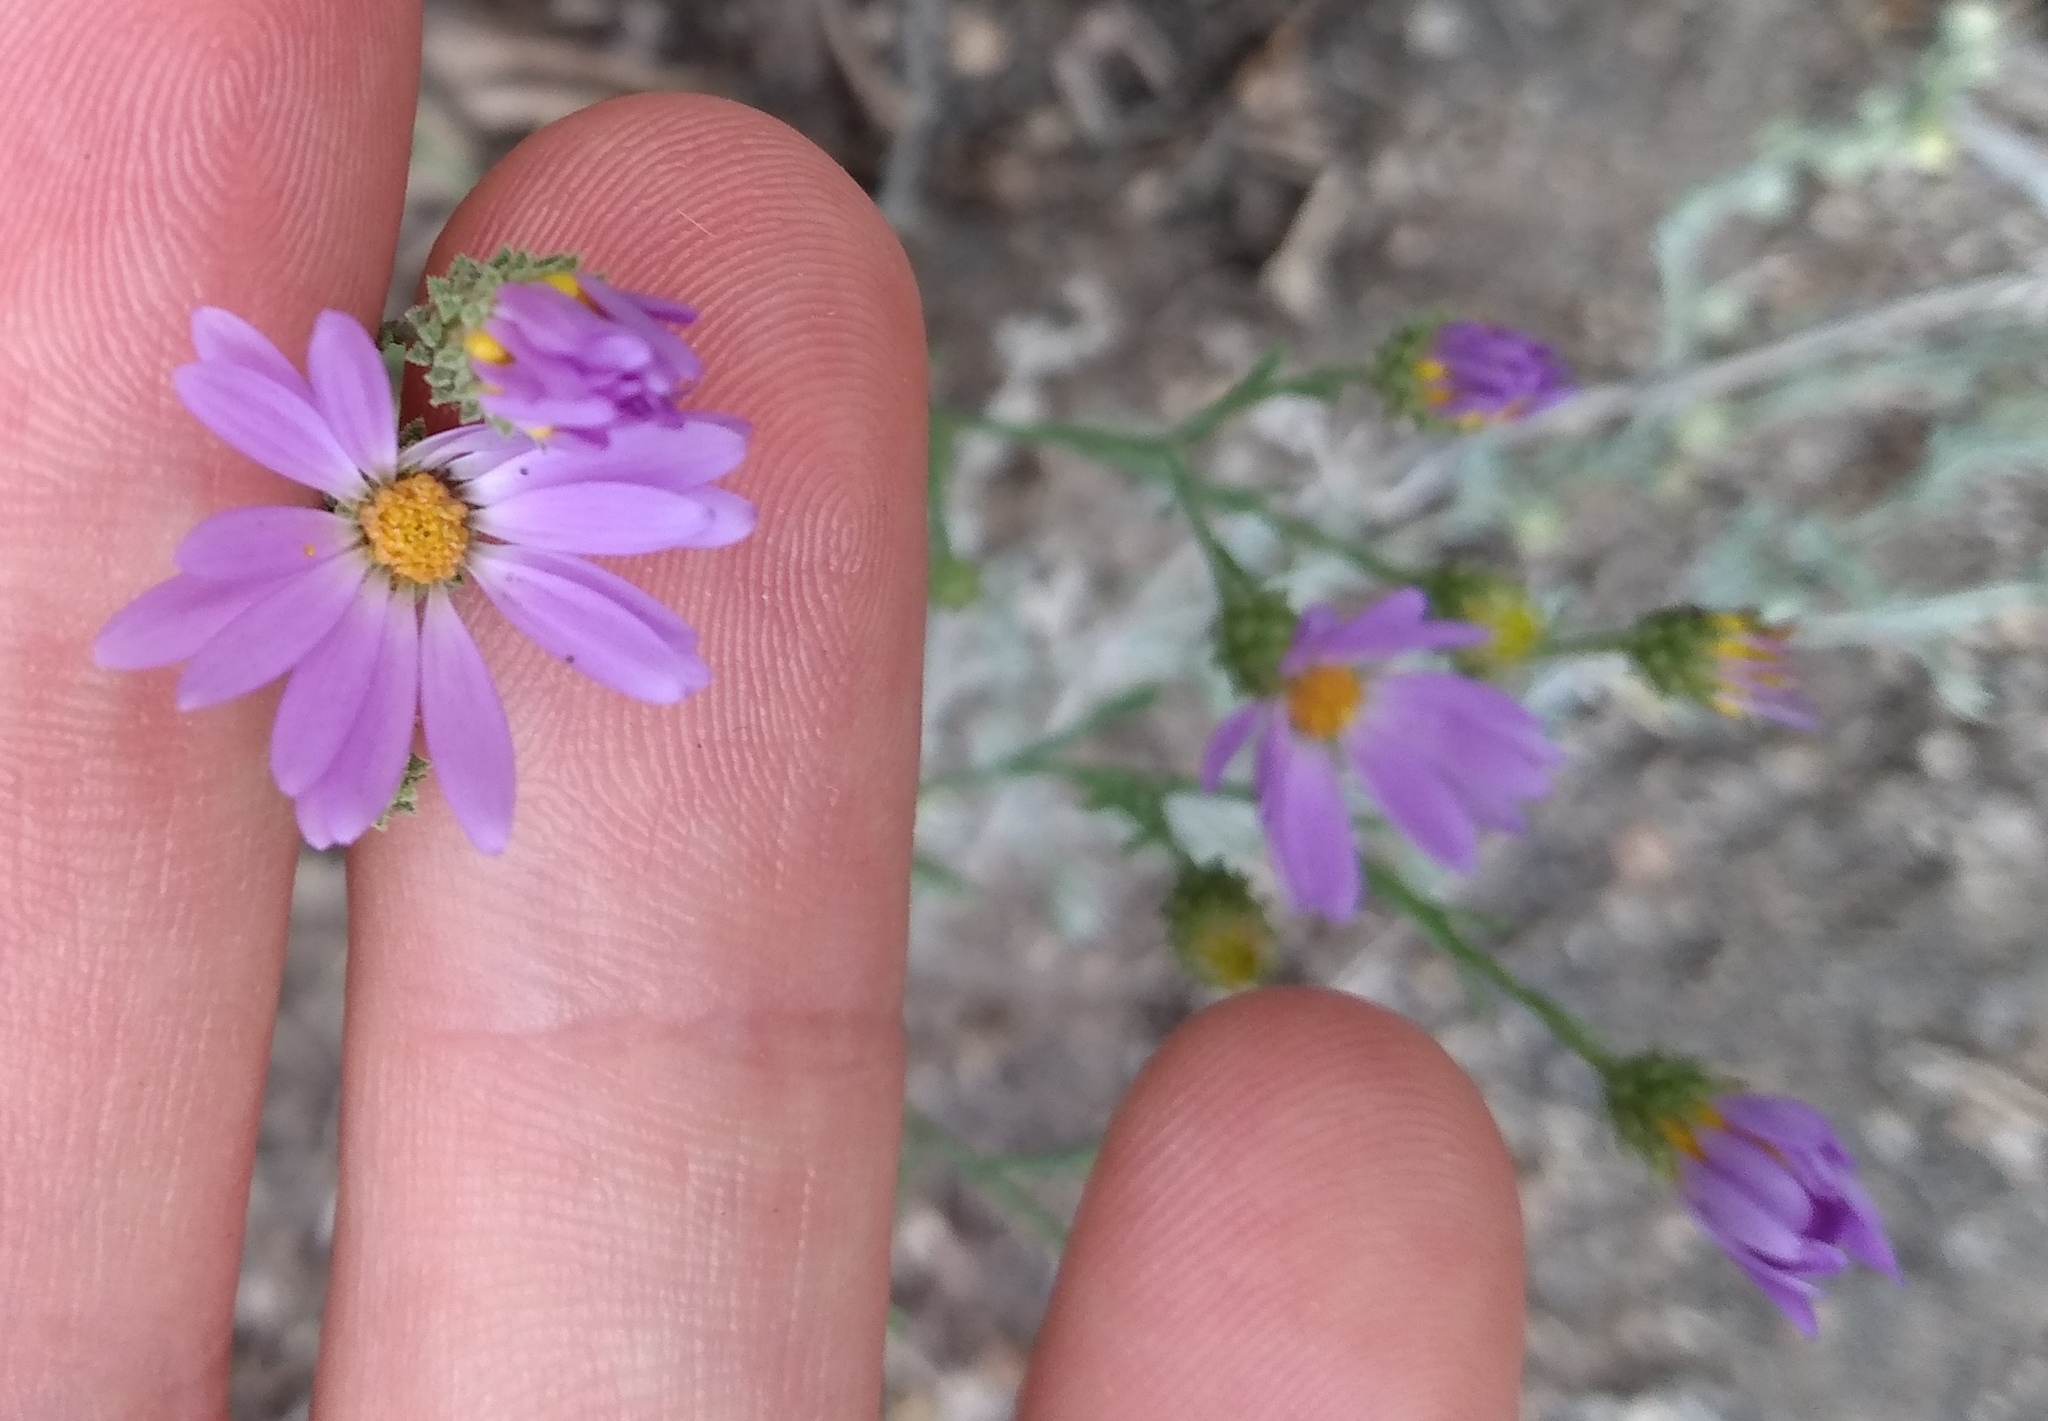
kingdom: Plantae
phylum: Tracheophyta
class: Magnoliopsida
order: Asterales
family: Asteraceae
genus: Dieteria
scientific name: Dieteria canescens
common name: Hoary-aster
